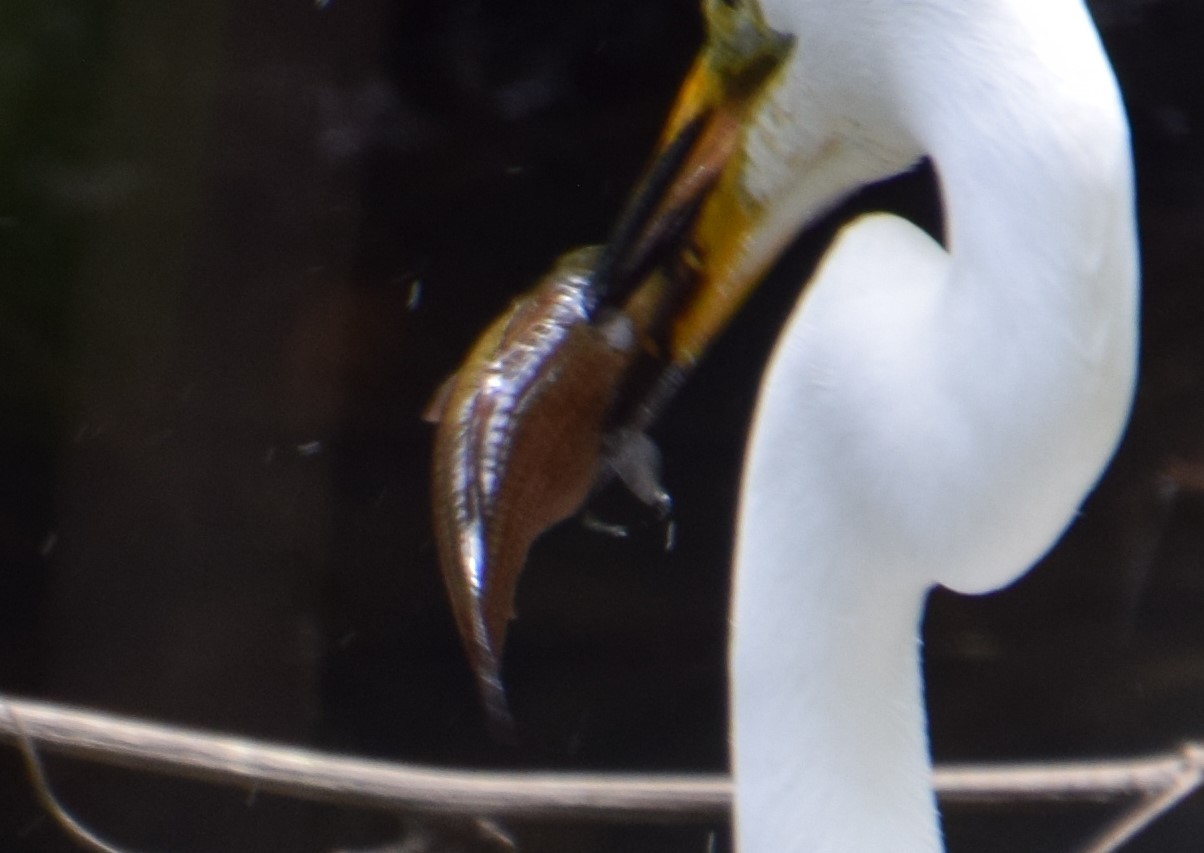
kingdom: Animalia
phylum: Chordata
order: Perciformes
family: Eleotridae
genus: Gobiomorphus
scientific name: Gobiomorphus australis
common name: Striped gudgeon
